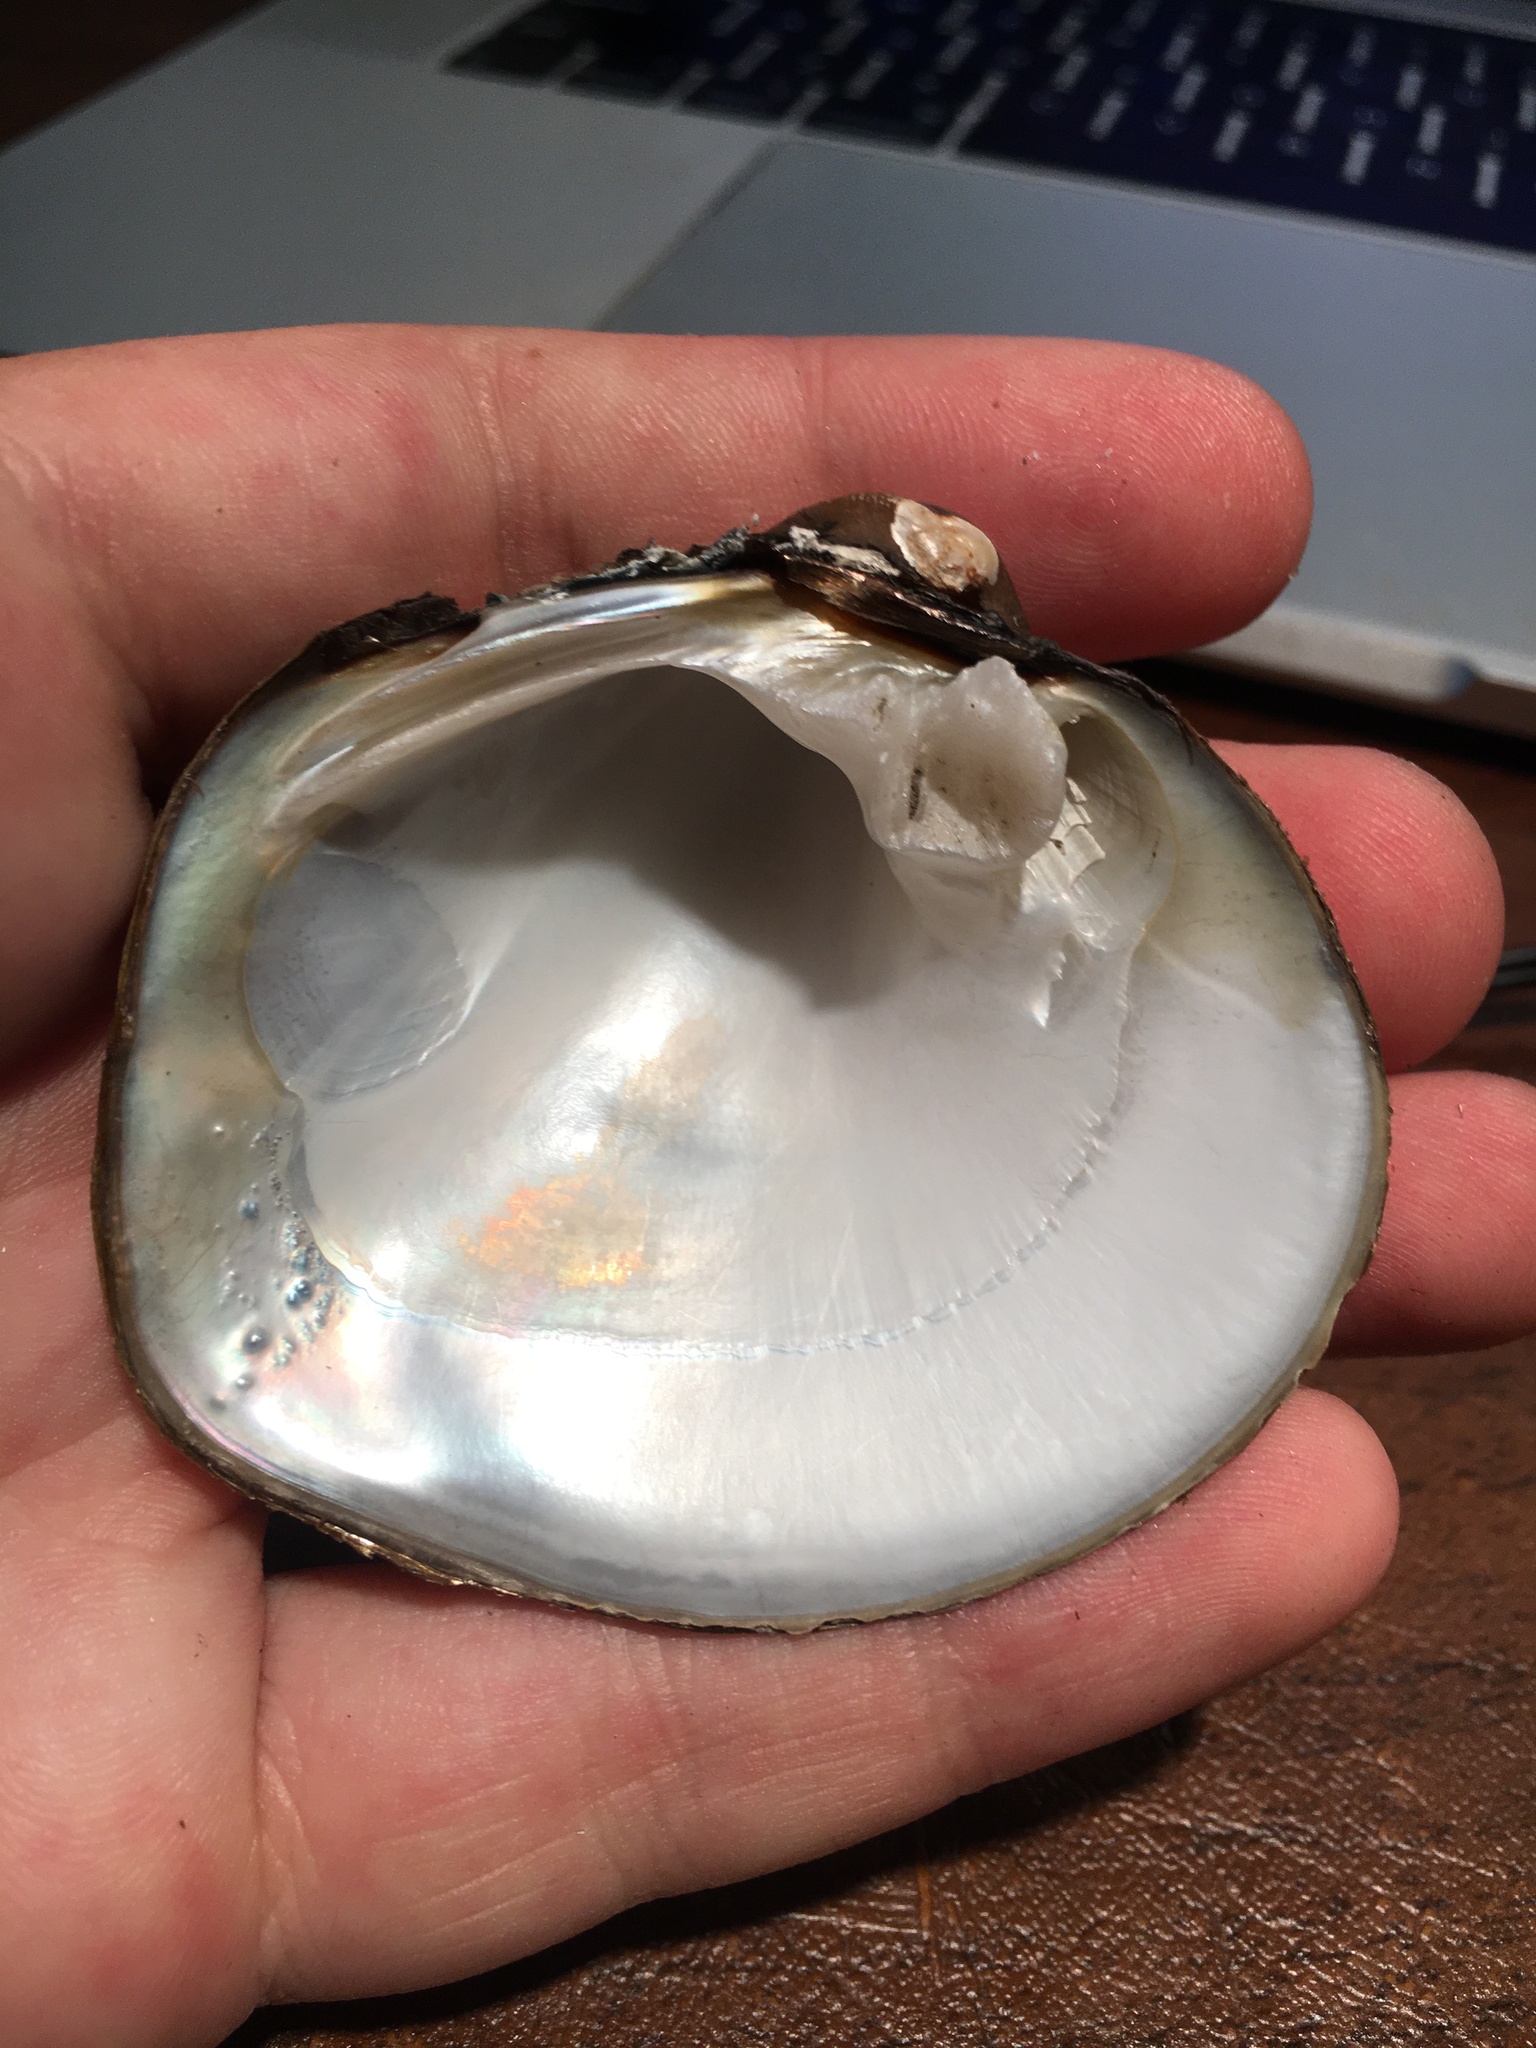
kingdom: Animalia
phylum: Mollusca
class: Bivalvia
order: Unionida
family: Unionidae
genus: Cyclonaias
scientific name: Cyclonaias pustulosa
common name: Pimpleback
